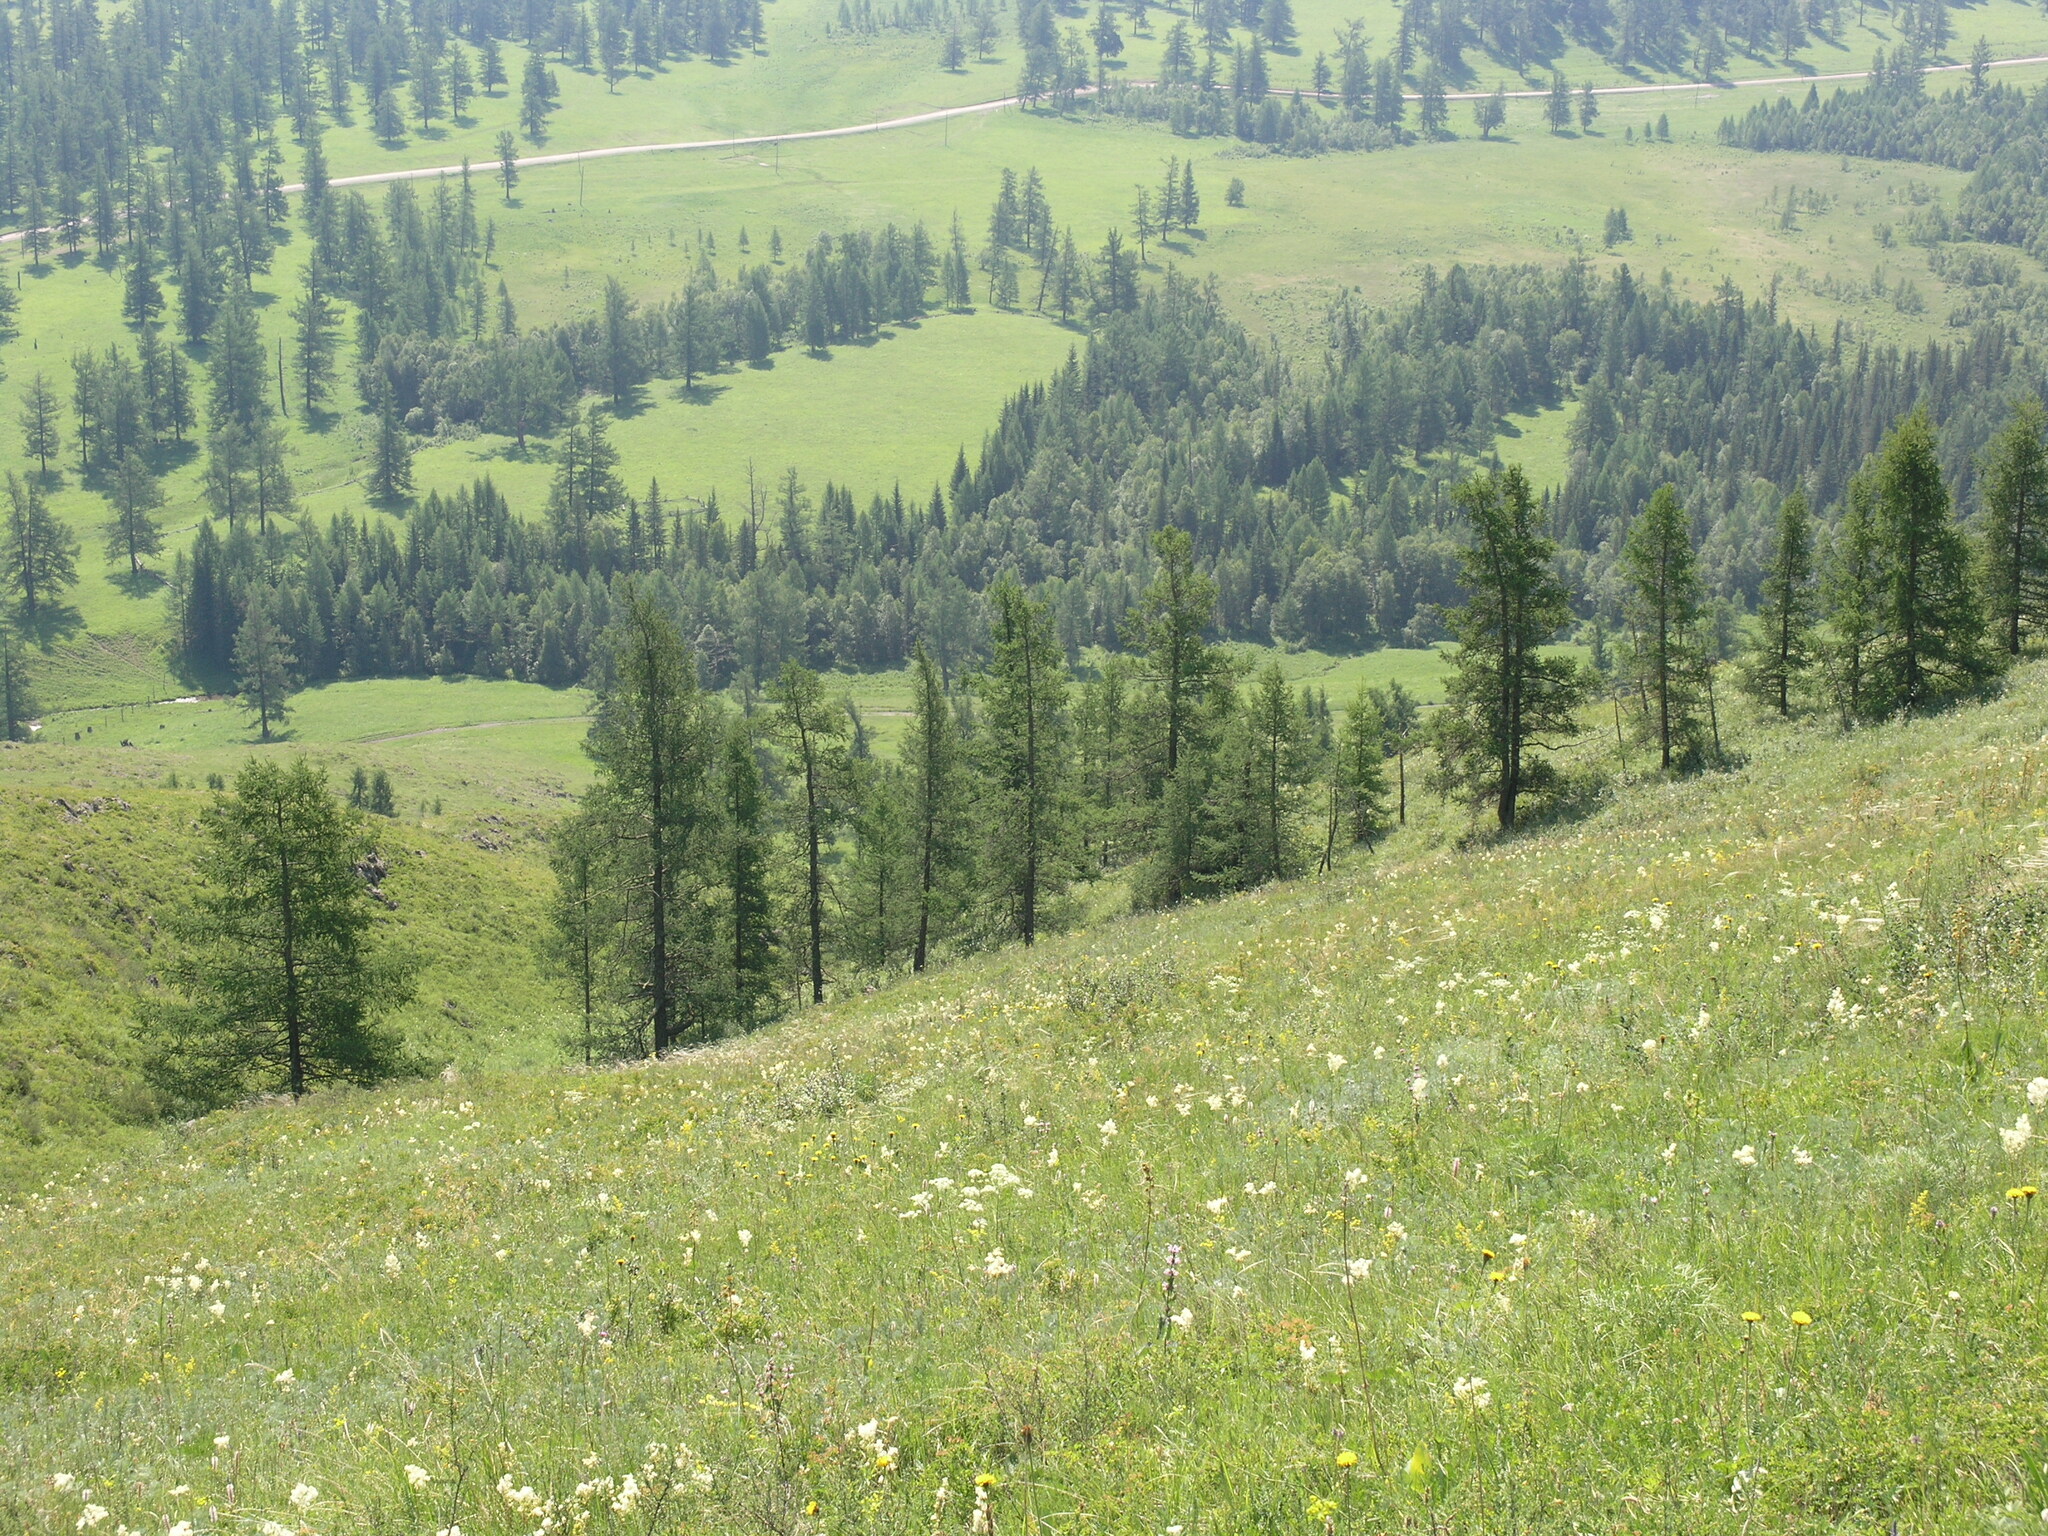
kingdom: Plantae
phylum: Tracheophyta
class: Pinopsida
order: Pinales
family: Pinaceae
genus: Larix
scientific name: Larix sibirica
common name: Siberian larch
